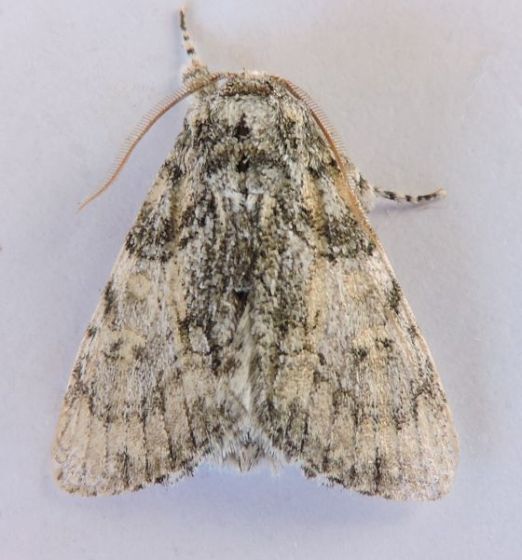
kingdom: Animalia
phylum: Arthropoda
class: Insecta
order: Lepidoptera
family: Noctuidae
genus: Raphia
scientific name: Raphia frater
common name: Brother
